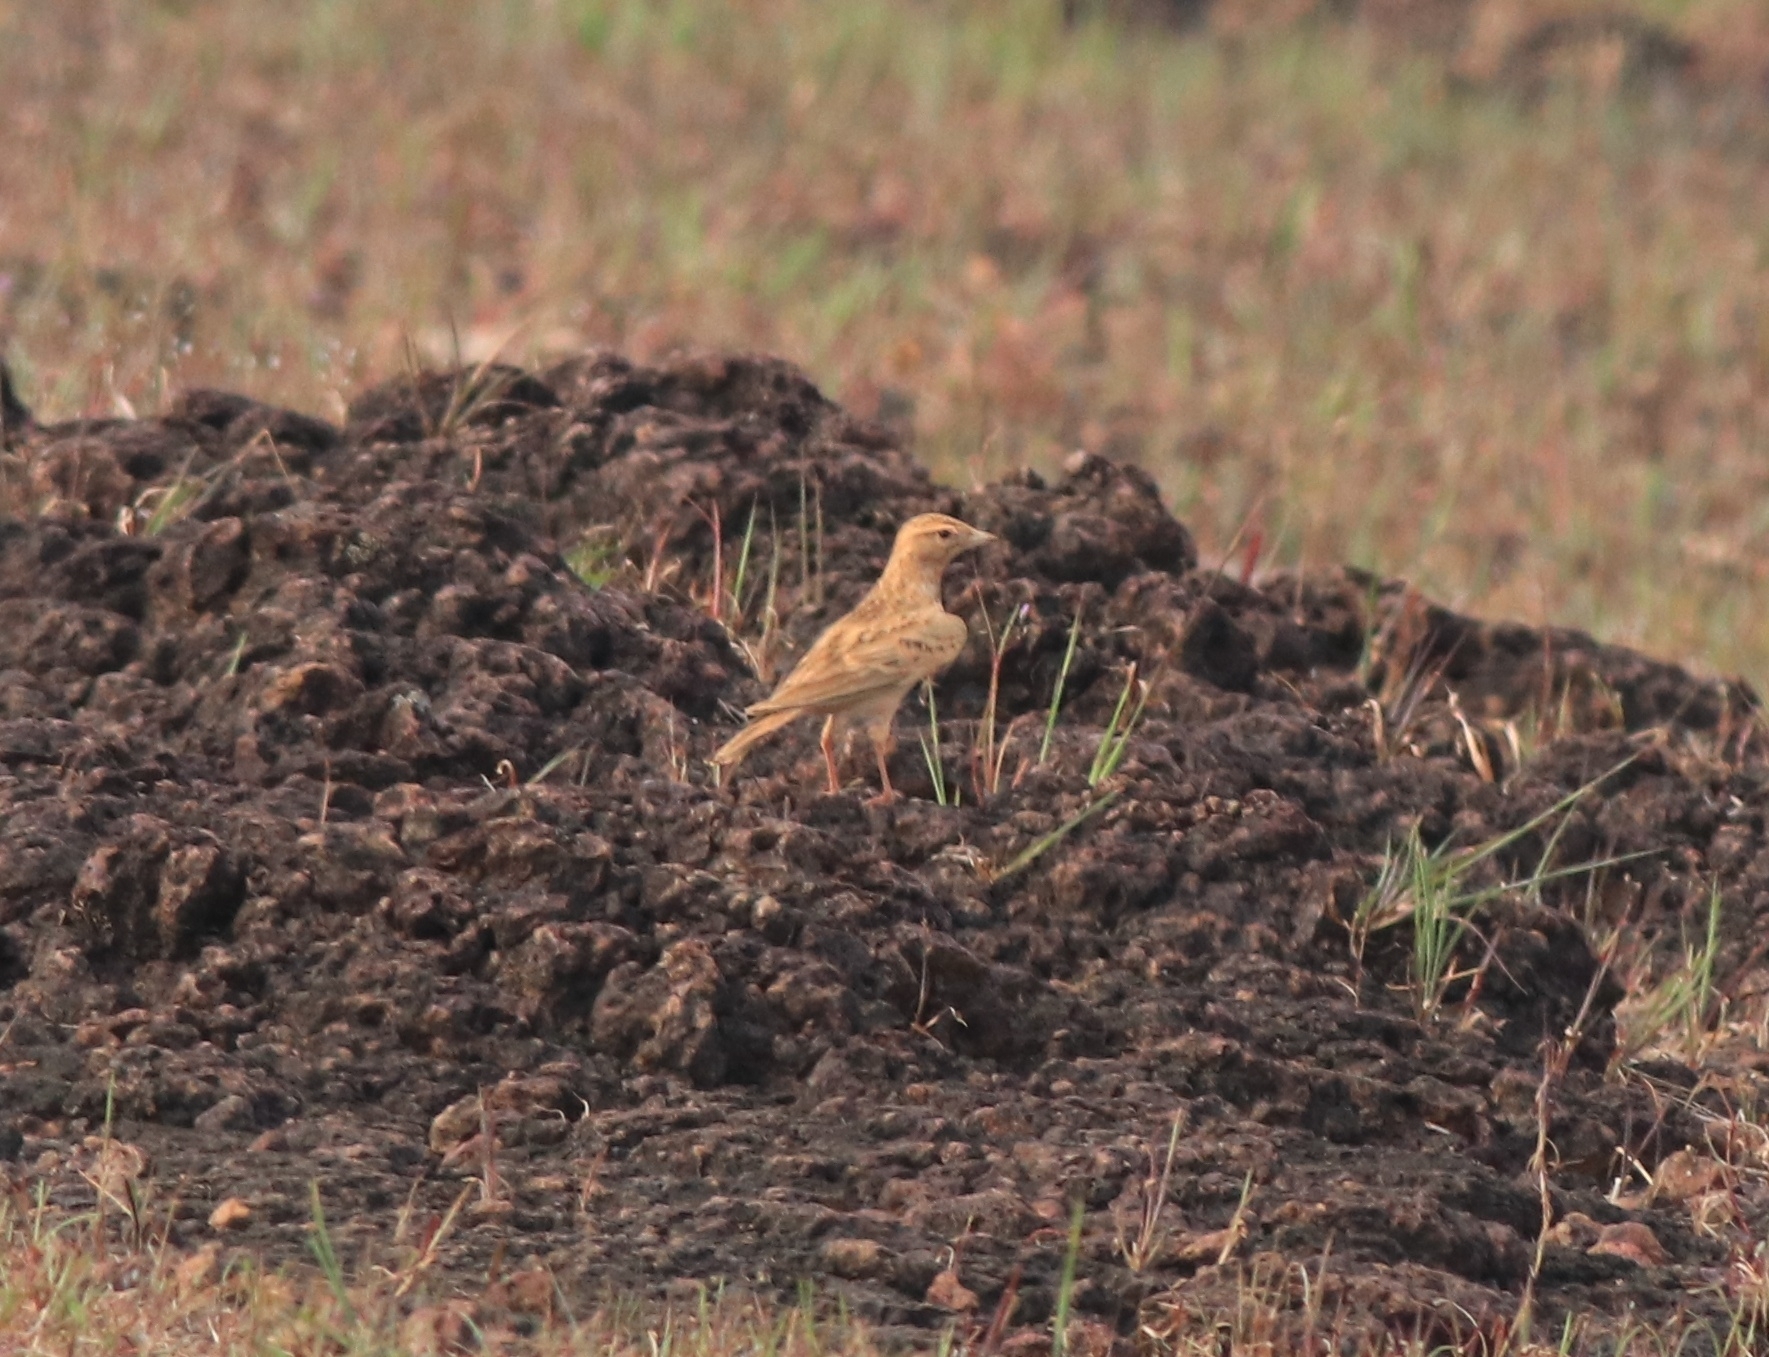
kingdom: Animalia
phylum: Chordata
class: Aves
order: Passeriformes
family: Alaudidae
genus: Calandrella
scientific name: Calandrella brachydactyla
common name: Greater short-toed lark
